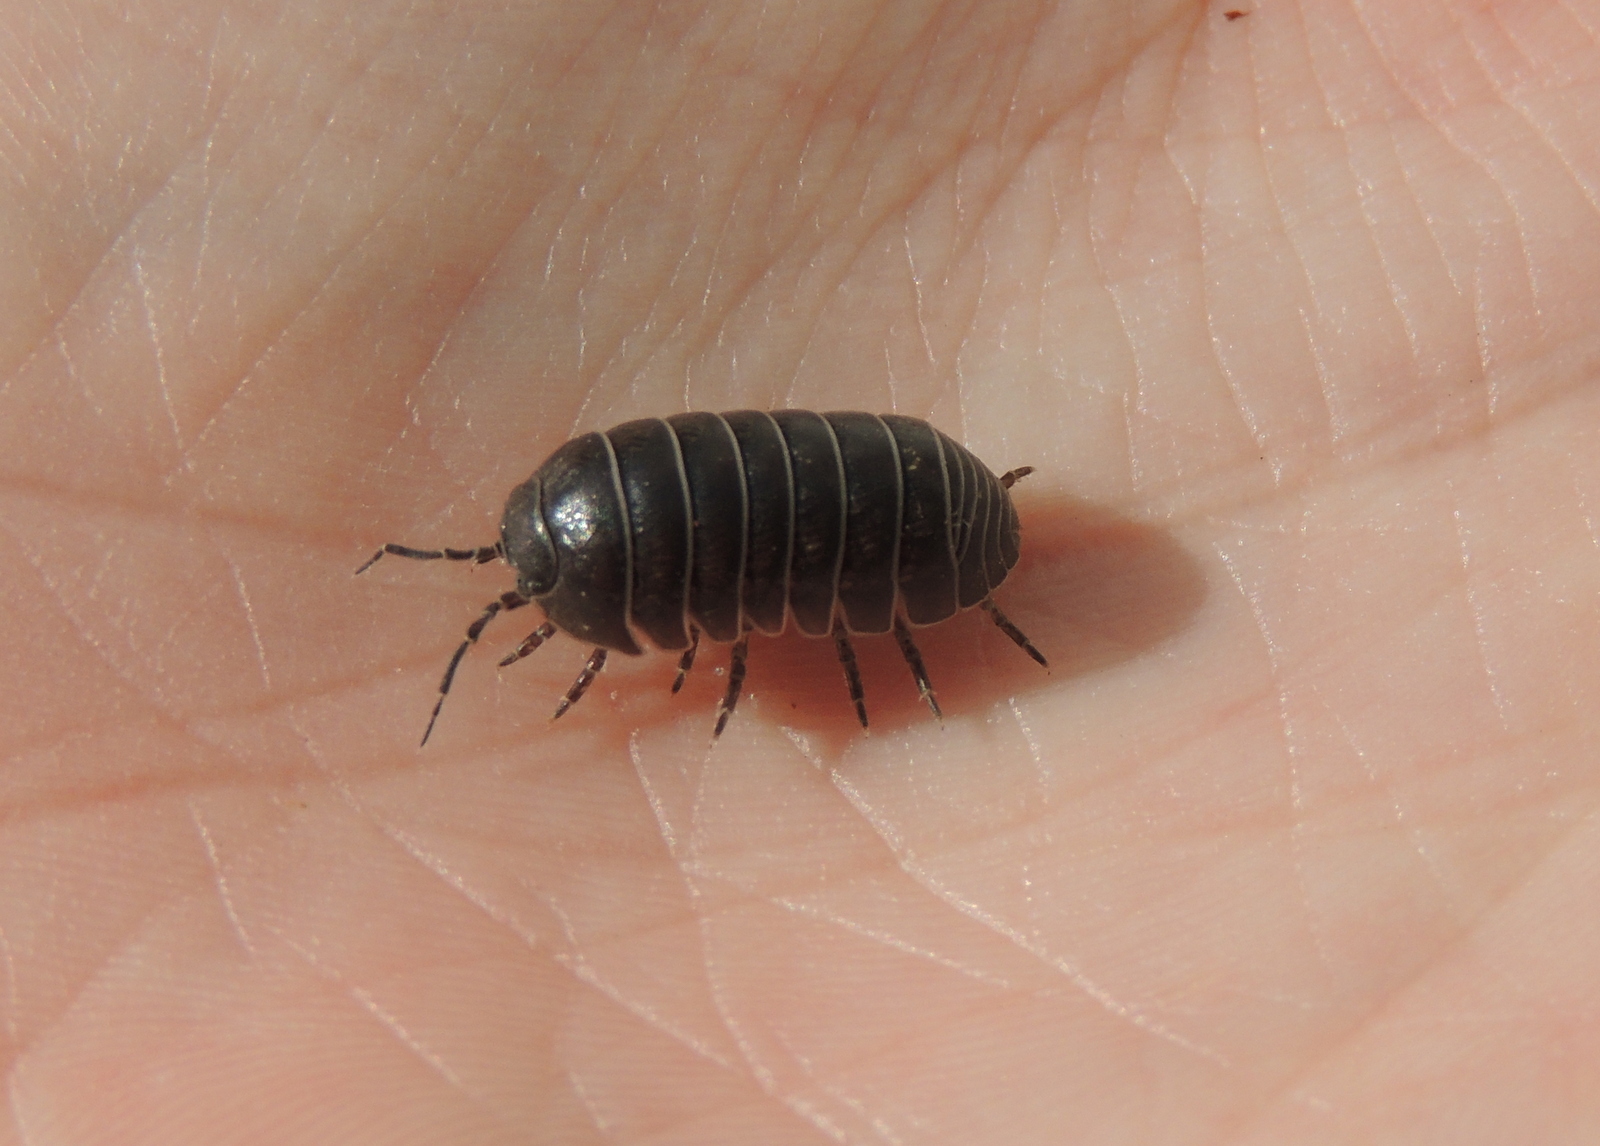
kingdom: Animalia
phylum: Arthropoda
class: Malacostraca
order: Isopoda
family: Armadillidiidae
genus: Armadillidium
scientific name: Armadillidium vulgare
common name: Common pill woodlouse
